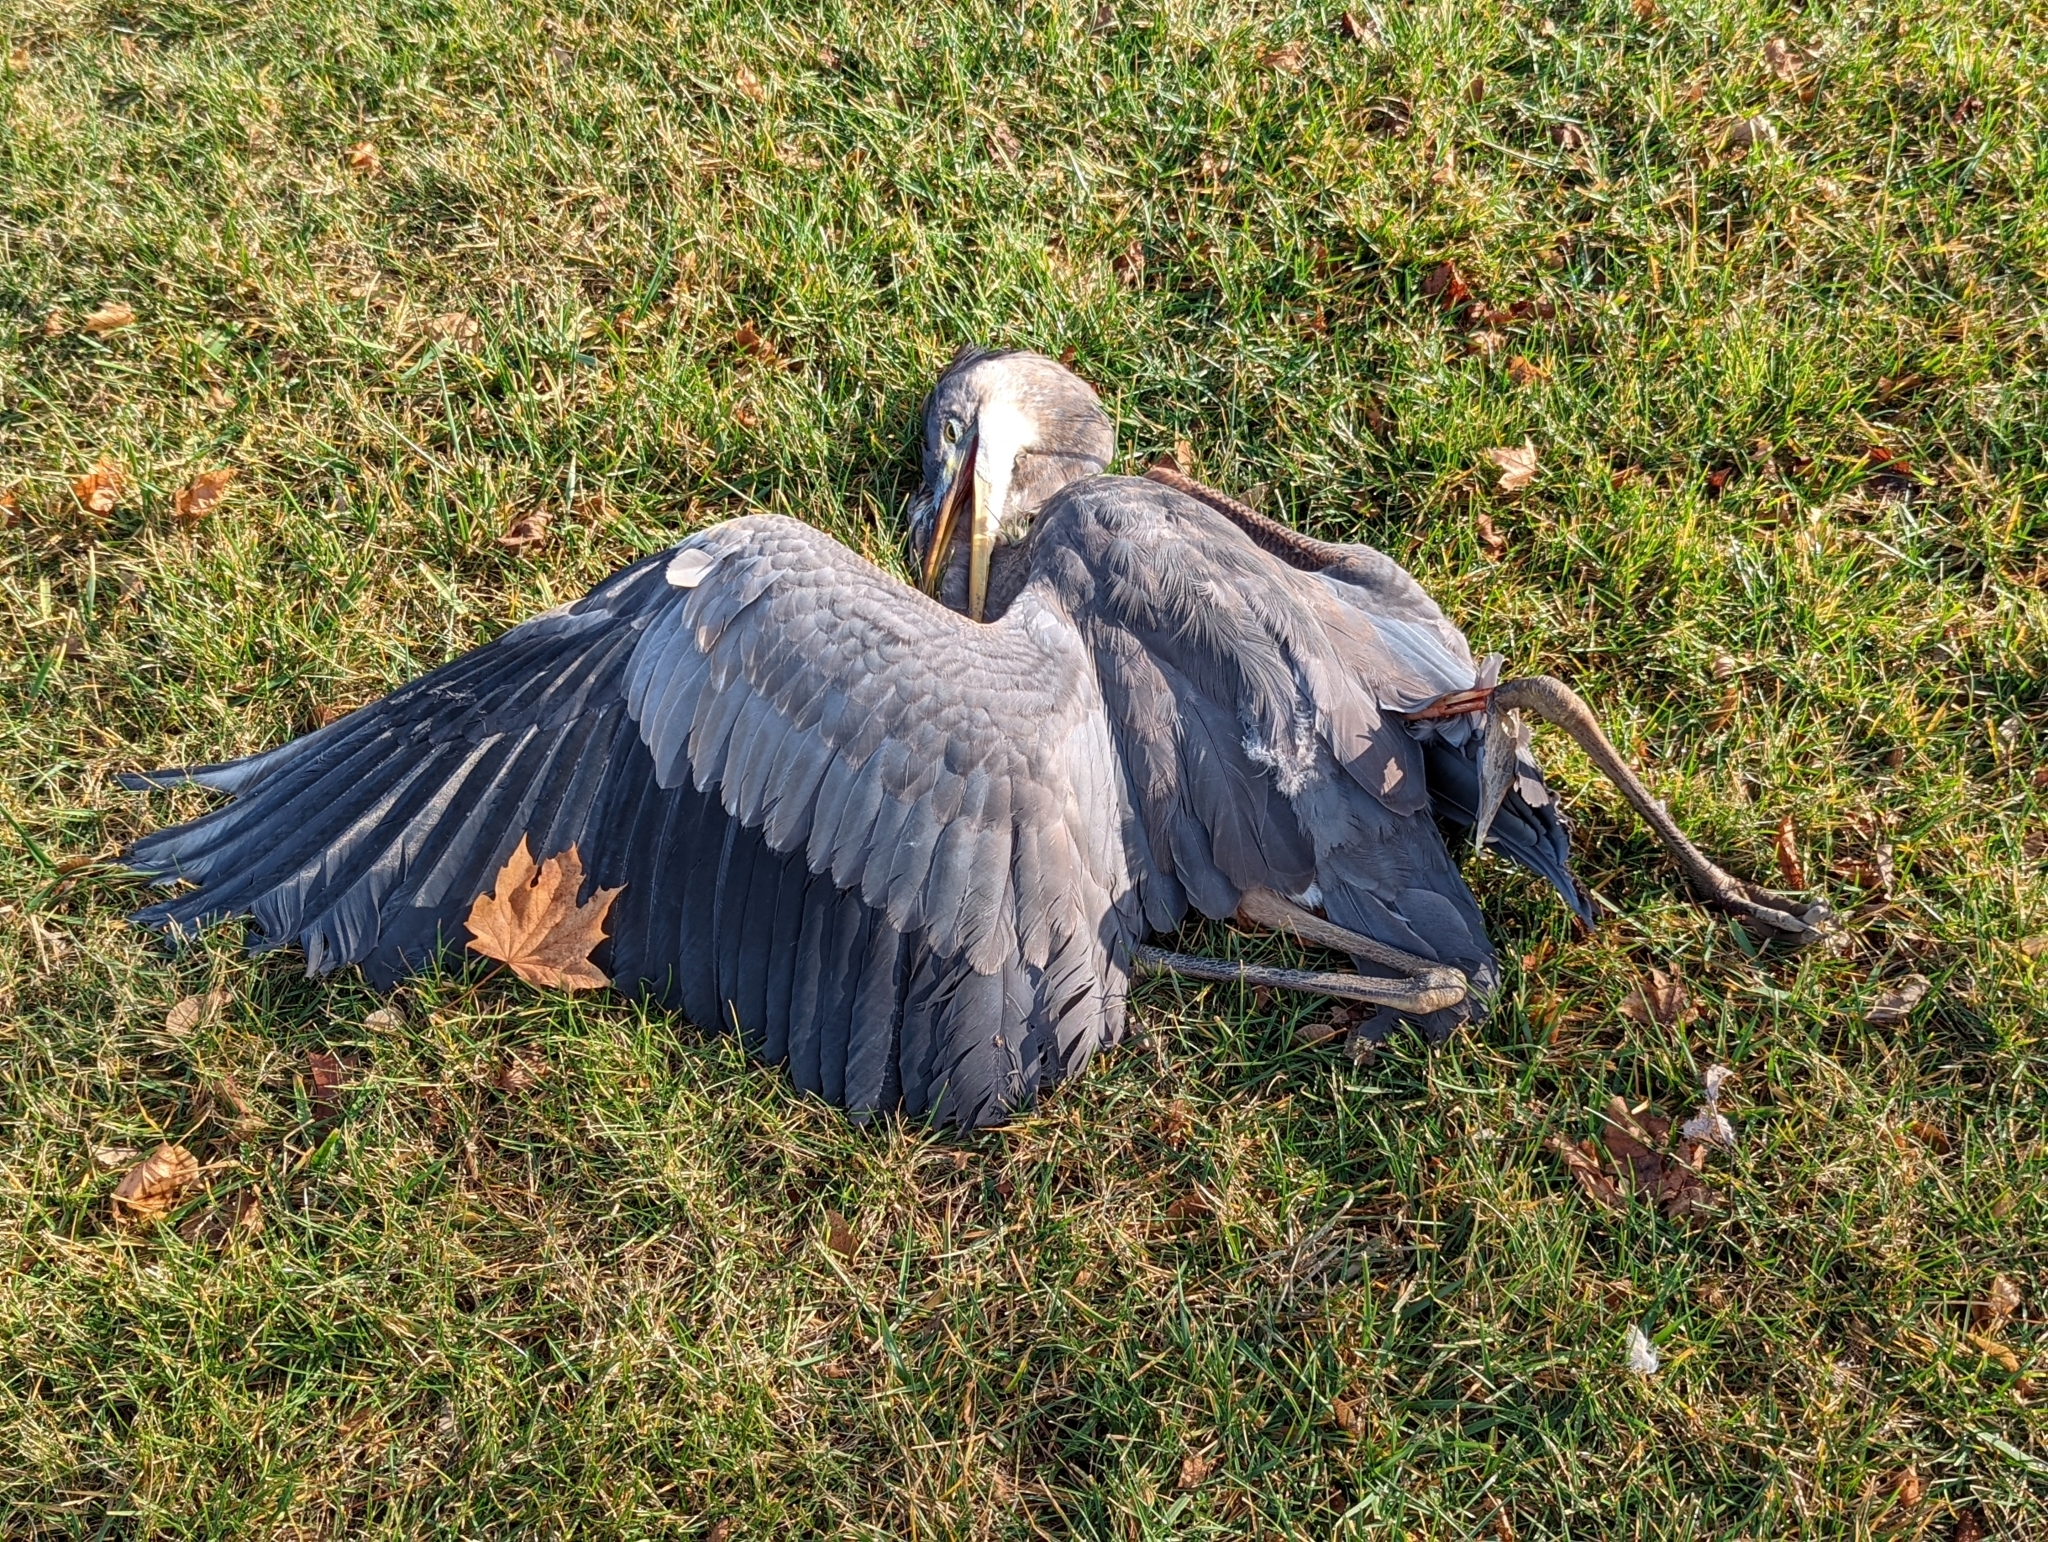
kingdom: Animalia
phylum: Chordata
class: Aves
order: Pelecaniformes
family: Ardeidae
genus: Ardea
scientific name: Ardea herodias
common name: Great blue heron
